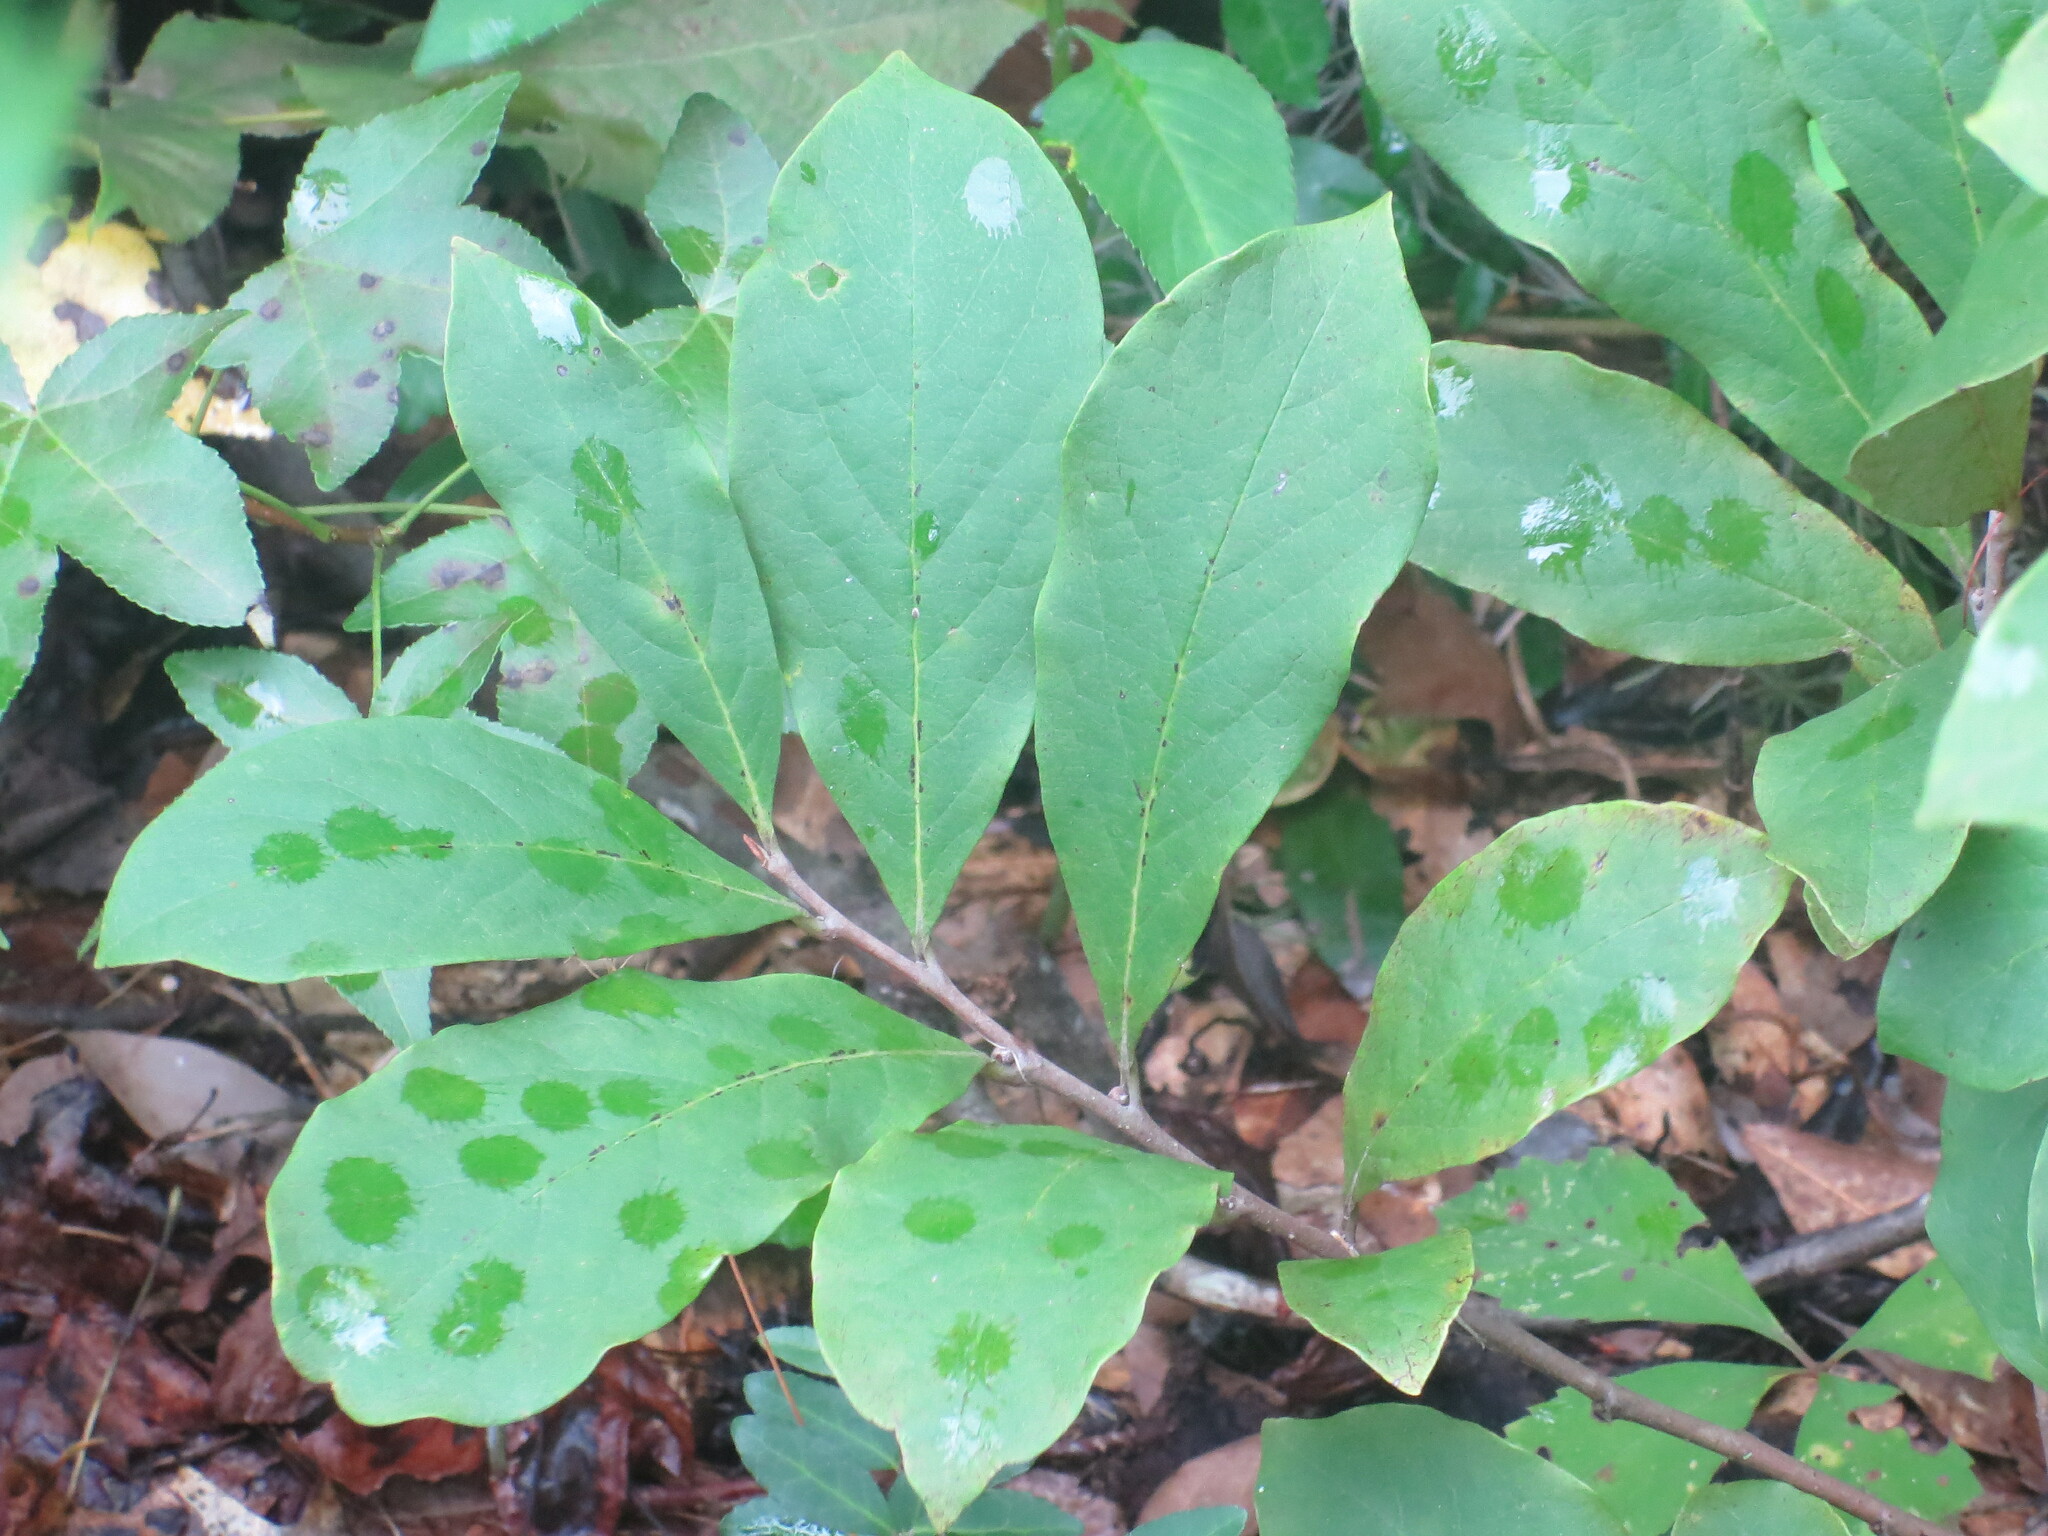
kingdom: Plantae
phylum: Tracheophyta
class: Magnoliopsida
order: Magnoliales
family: Annonaceae
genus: Asimina
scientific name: Asimina parviflora
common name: Dwarf pawpaw
